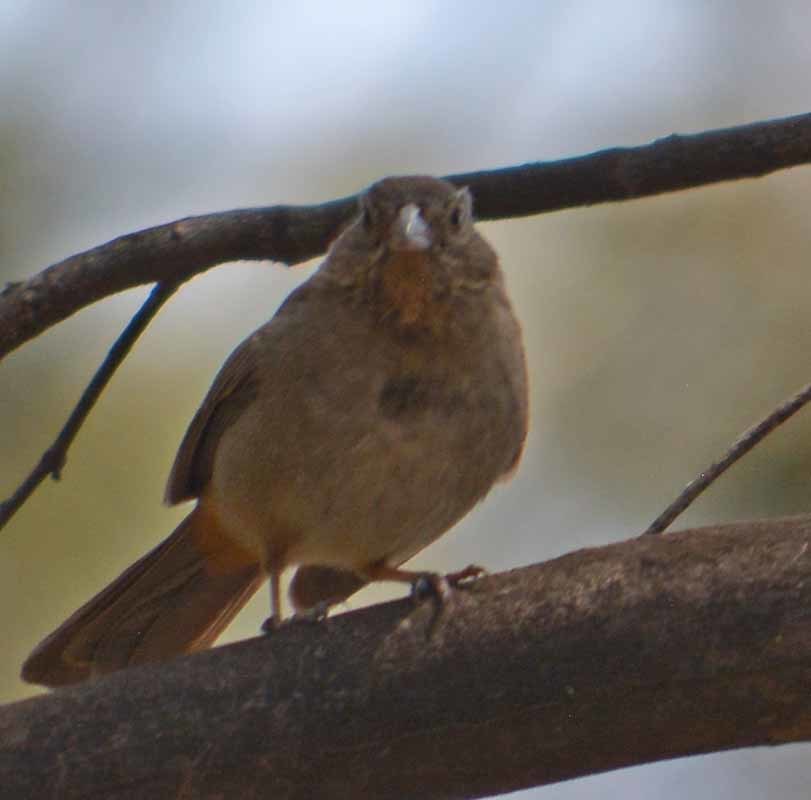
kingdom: Animalia
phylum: Chordata
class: Aves
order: Passeriformes
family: Passerellidae
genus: Melozone
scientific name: Melozone fusca
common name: Canyon towhee
